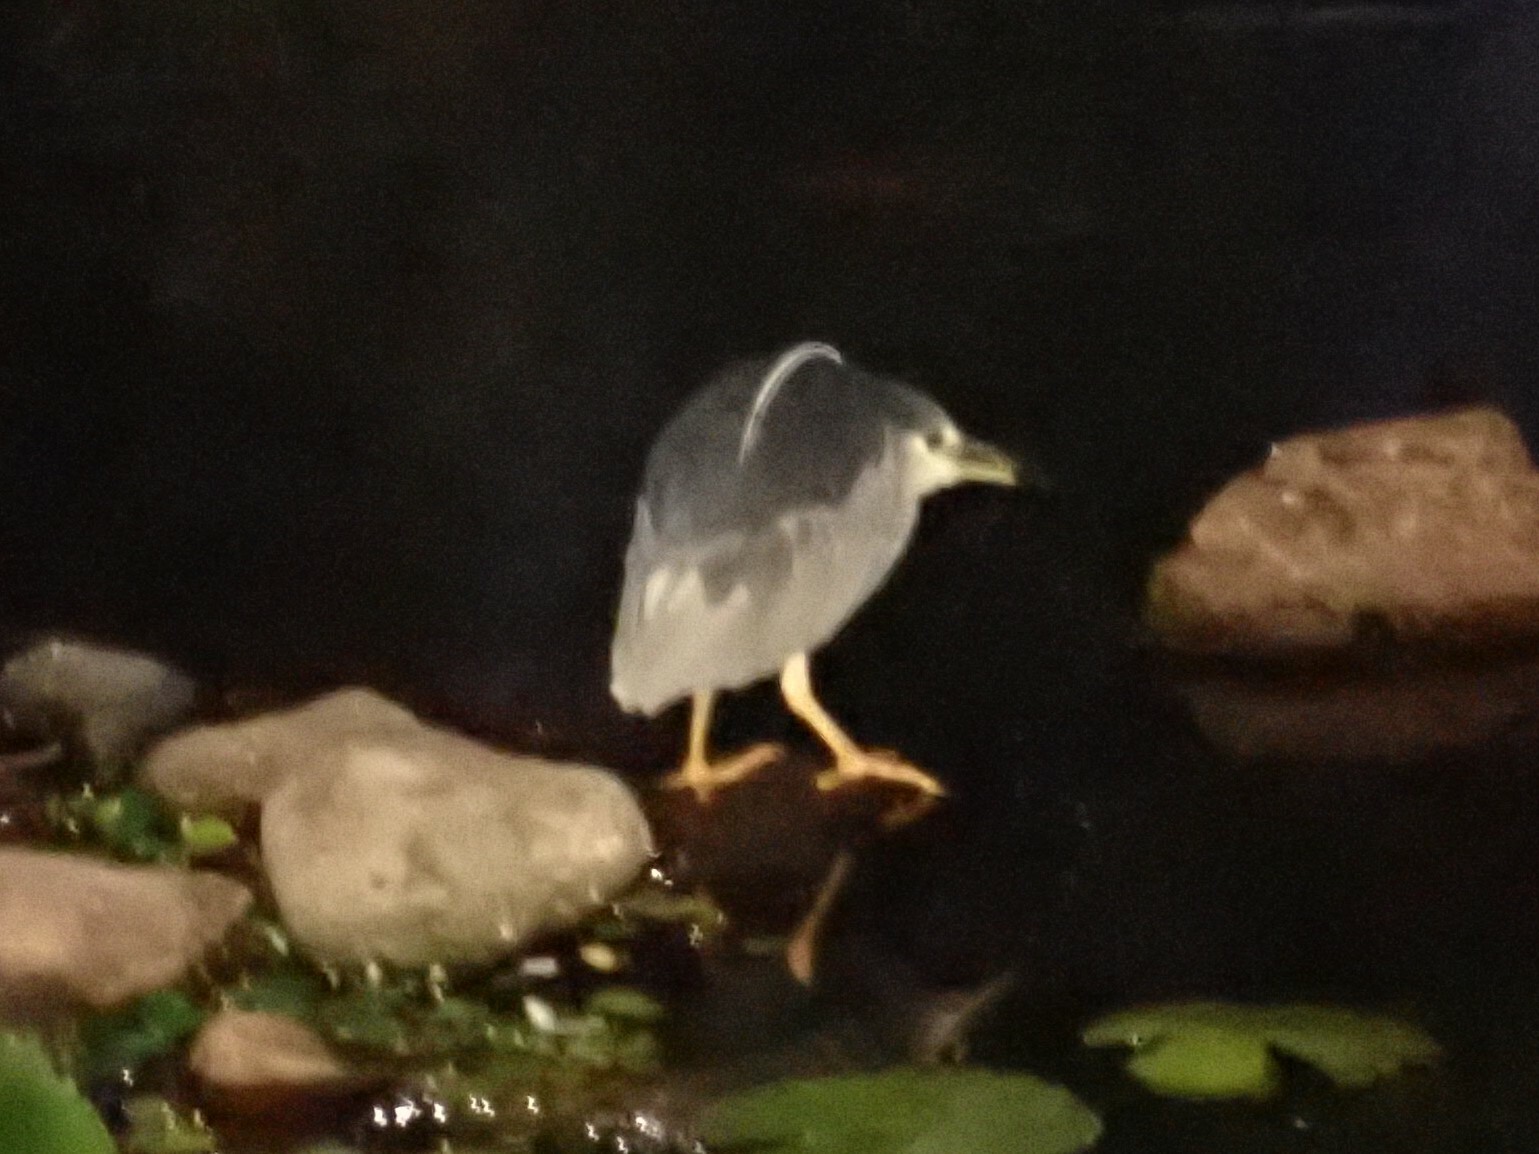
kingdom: Animalia
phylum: Chordata
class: Aves
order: Pelecaniformes
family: Ardeidae
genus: Nycticorax
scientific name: Nycticorax nycticorax
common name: Black-crowned night heron
